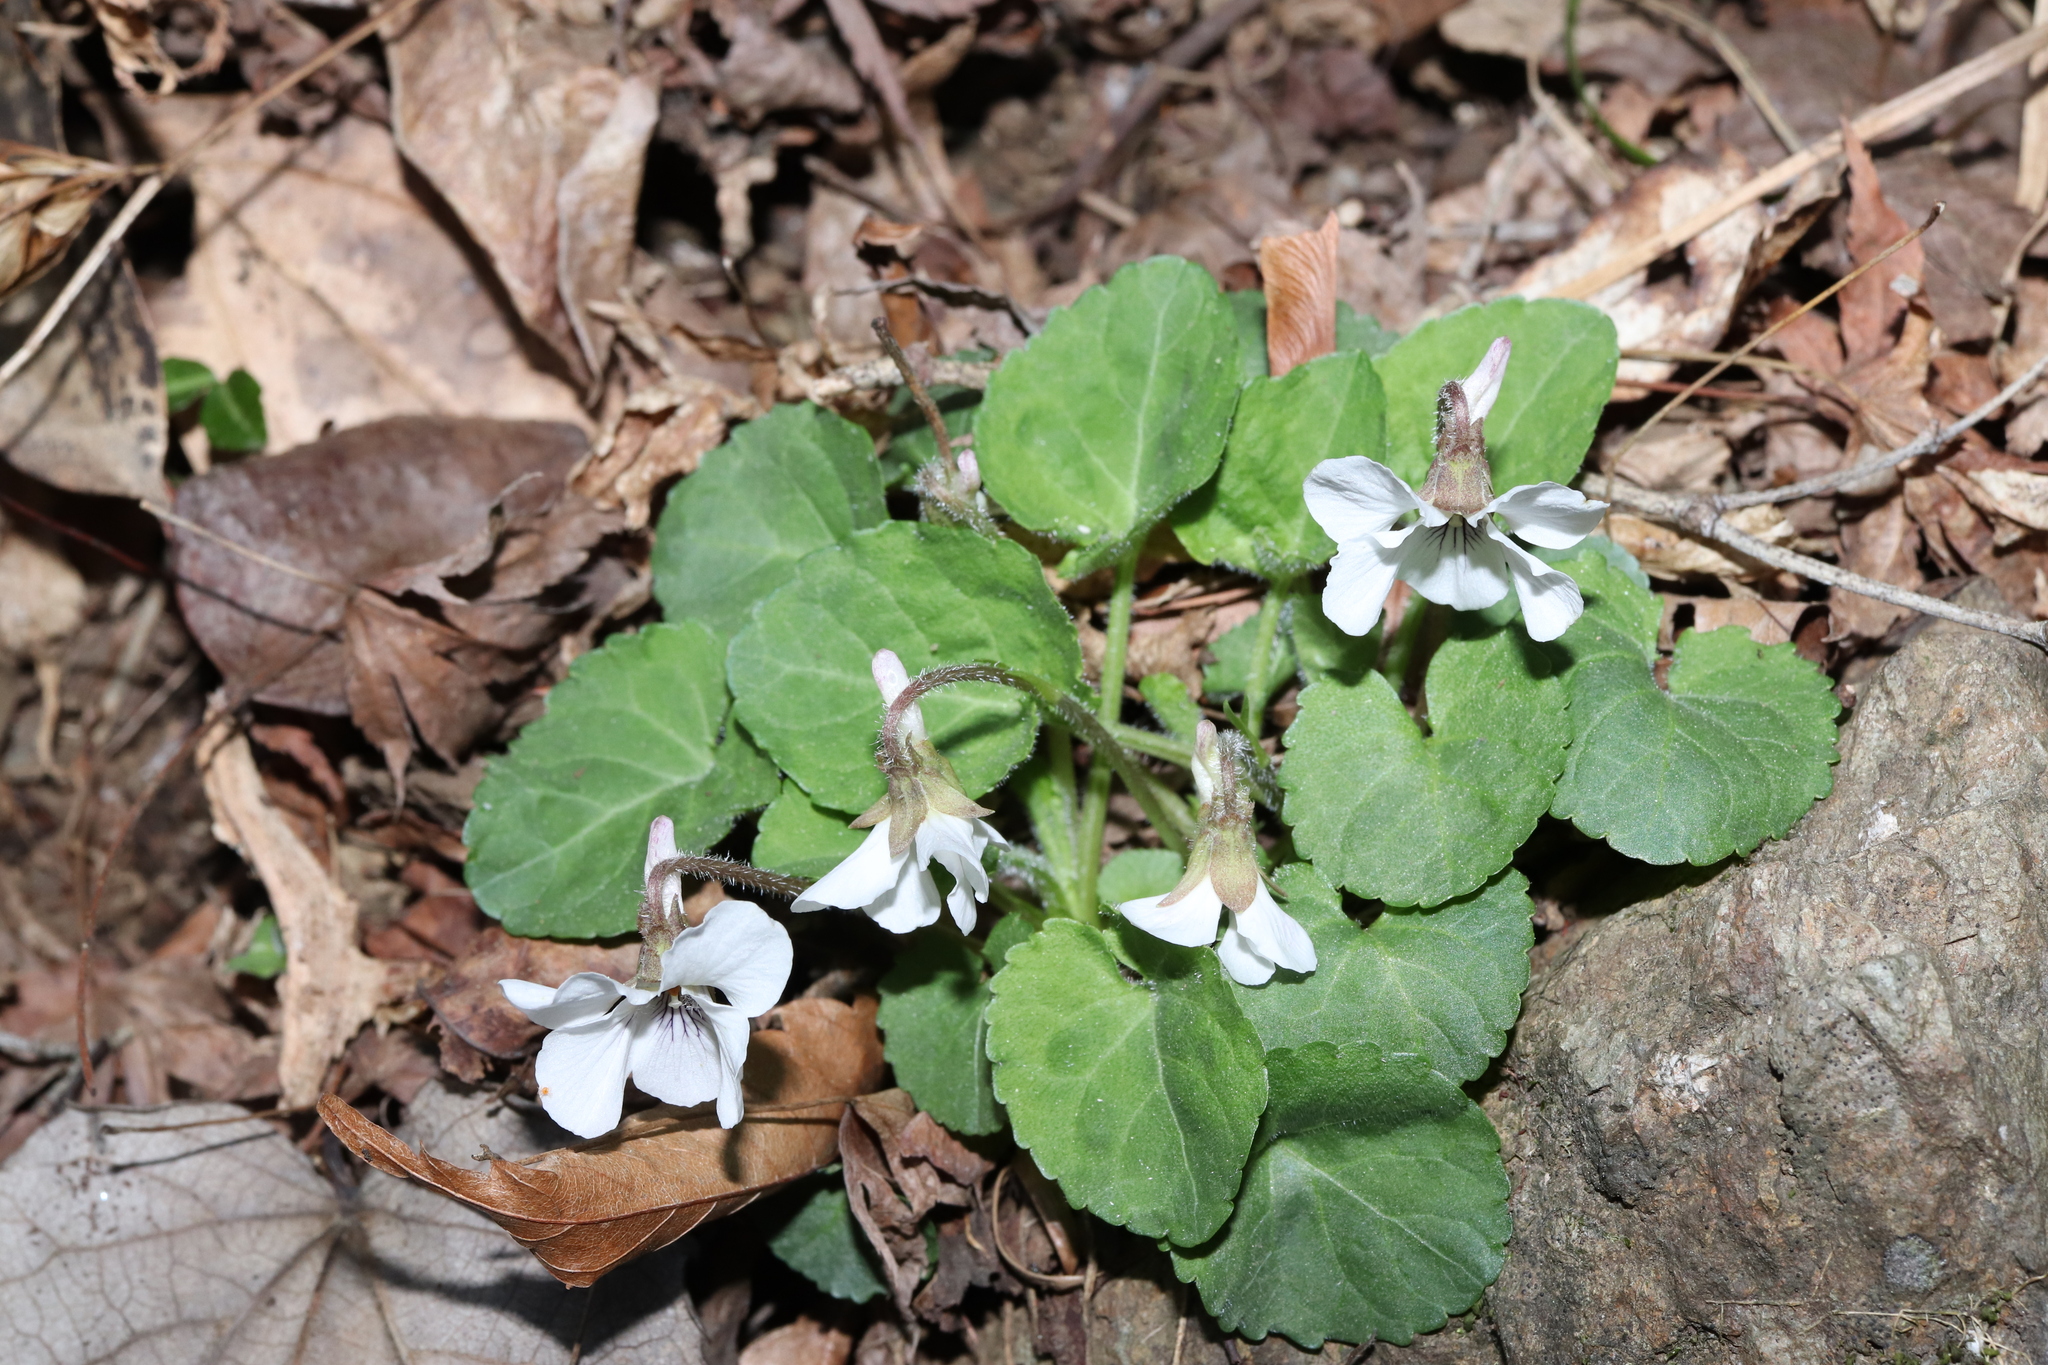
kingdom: Plantae
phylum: Tracheophyta
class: Magnoliopsida
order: Malpighiales
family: Violaceae
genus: Viola
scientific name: Viola keiskei
